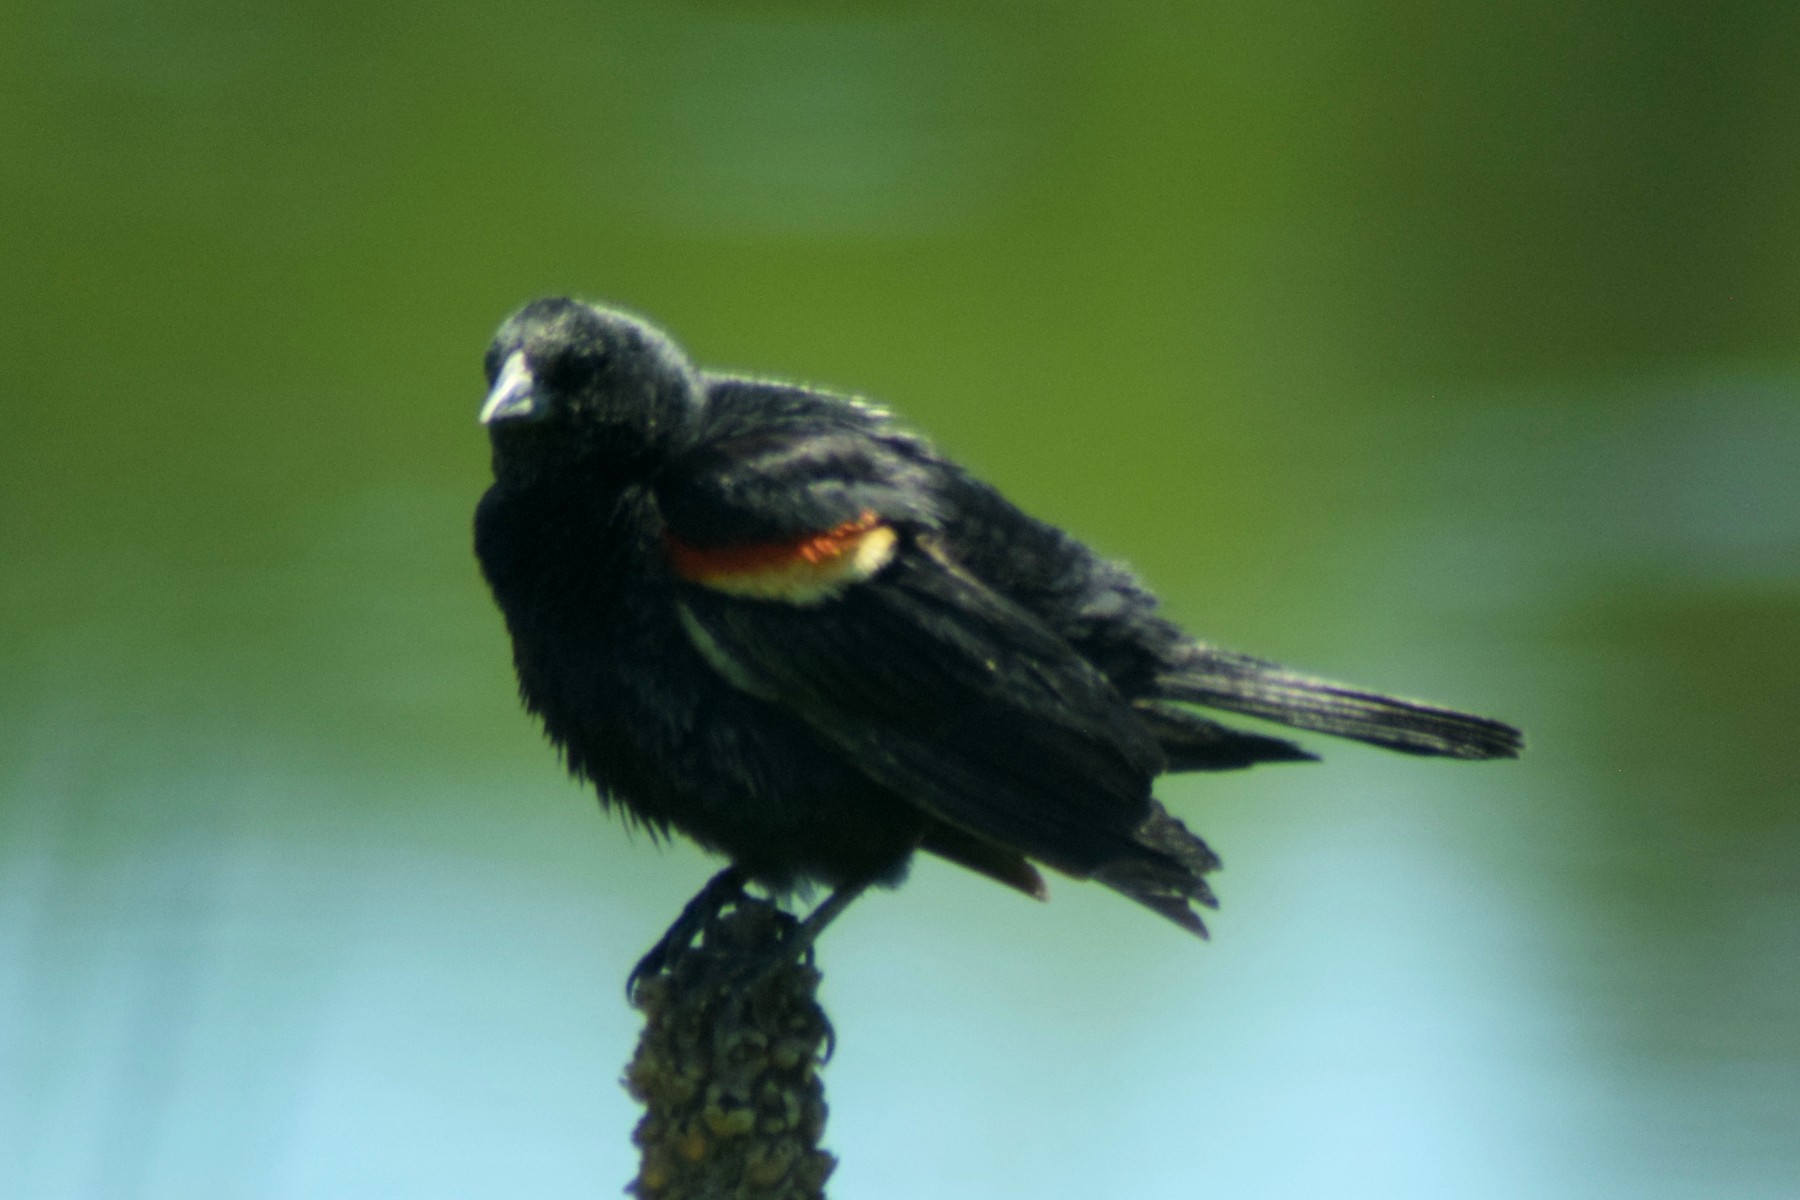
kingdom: Animalia
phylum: Chordata
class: Aves
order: Passeriformes
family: Icteridae
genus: Agelaius
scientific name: Agelaius phoeniceus
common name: Red-winged blackbird
